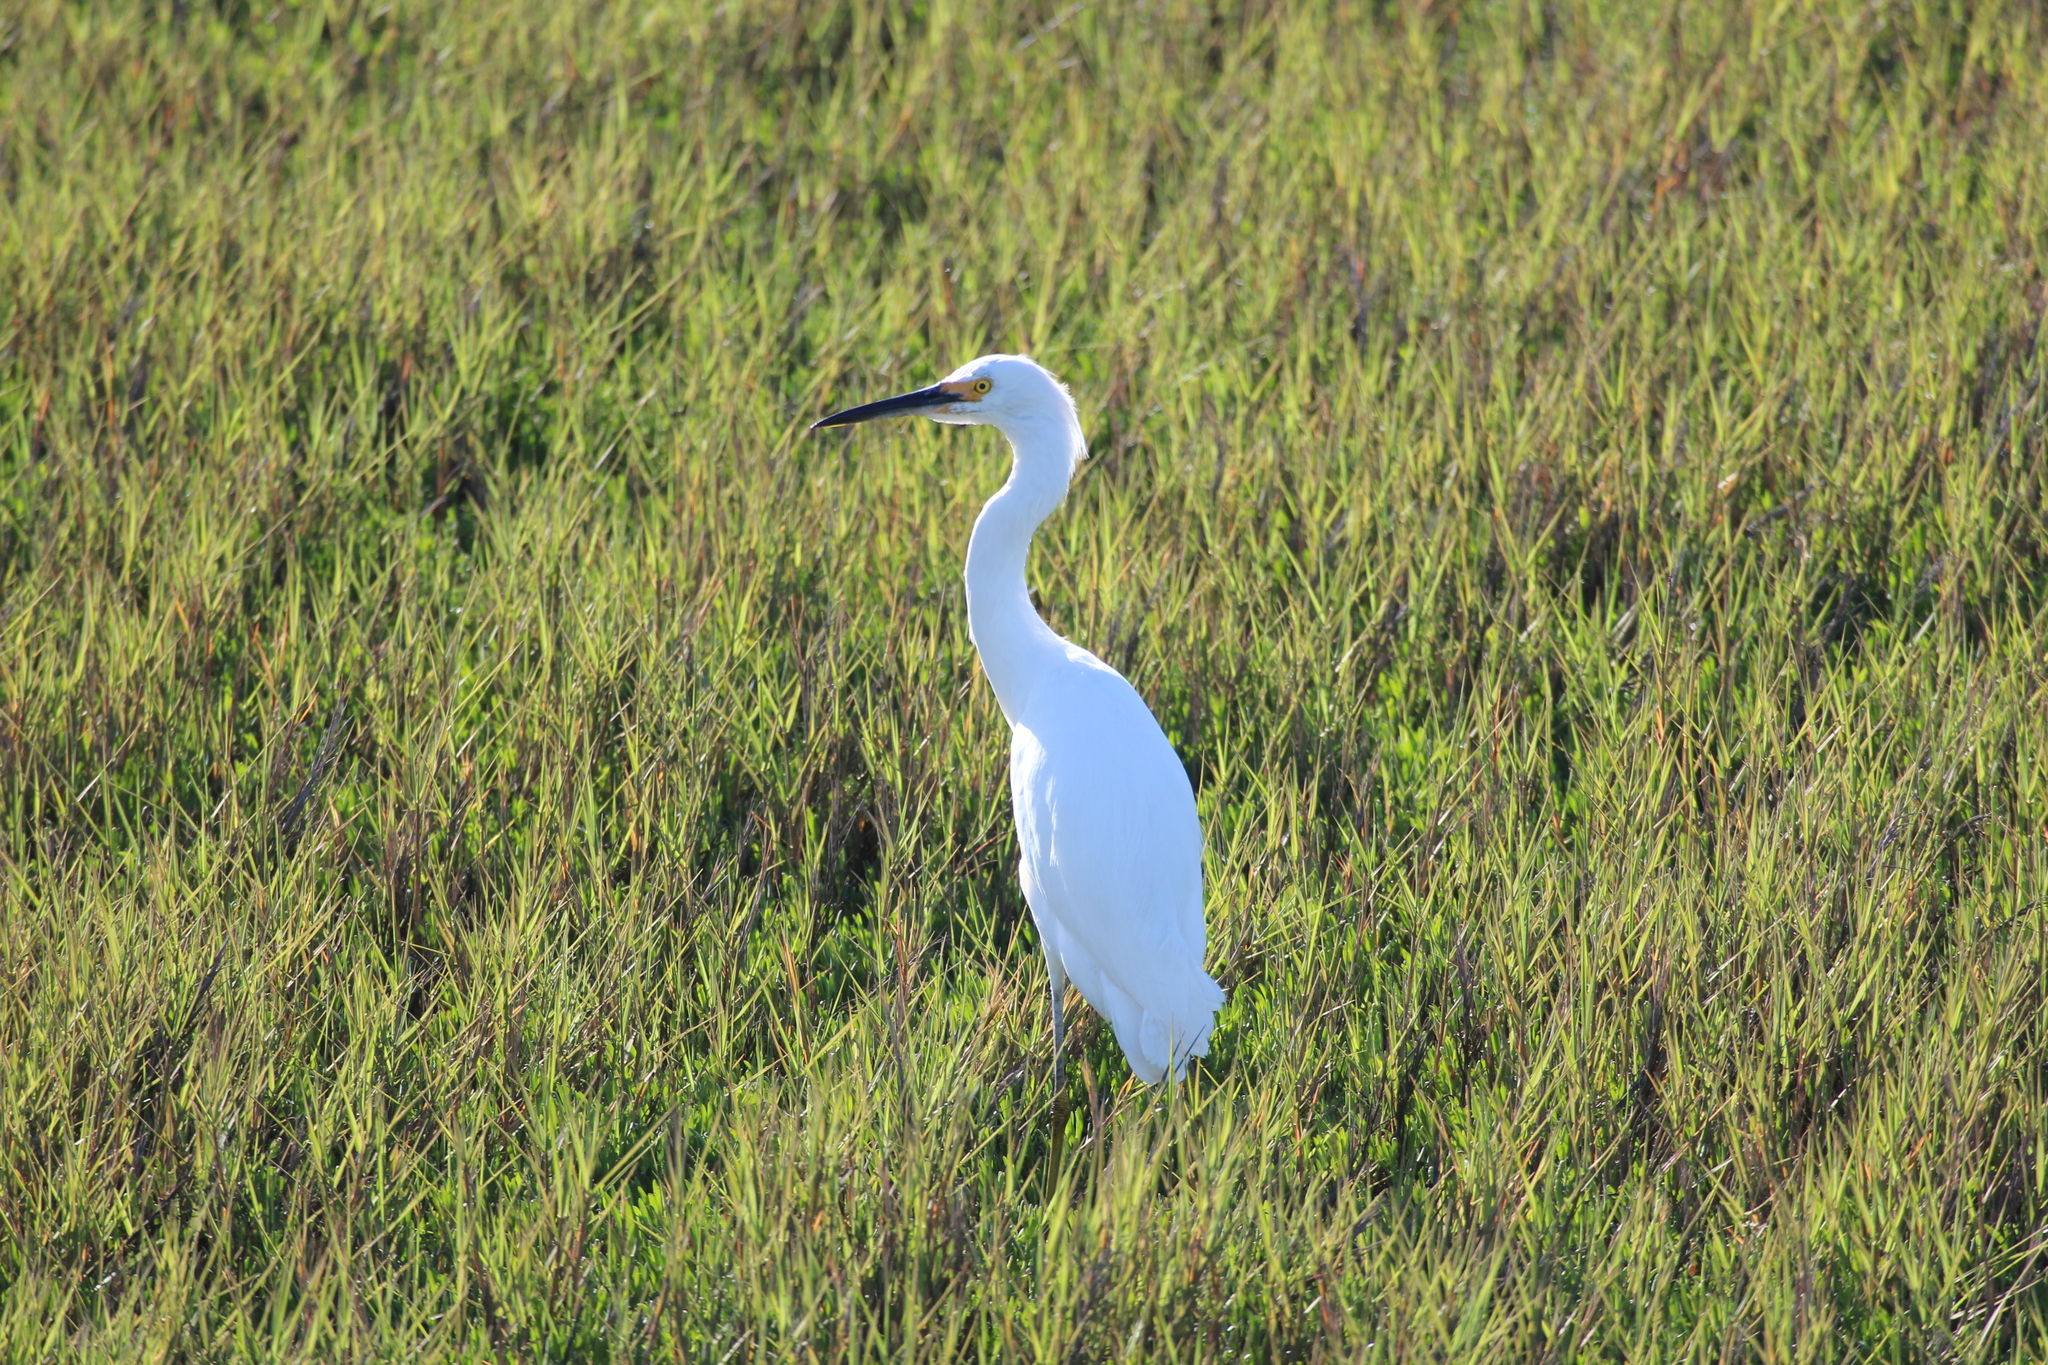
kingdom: Animalia
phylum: Chordata
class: Aves
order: Pelecaniformes
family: Ardeidae
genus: Egretta
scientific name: Egretta thula
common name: Snowy egret
